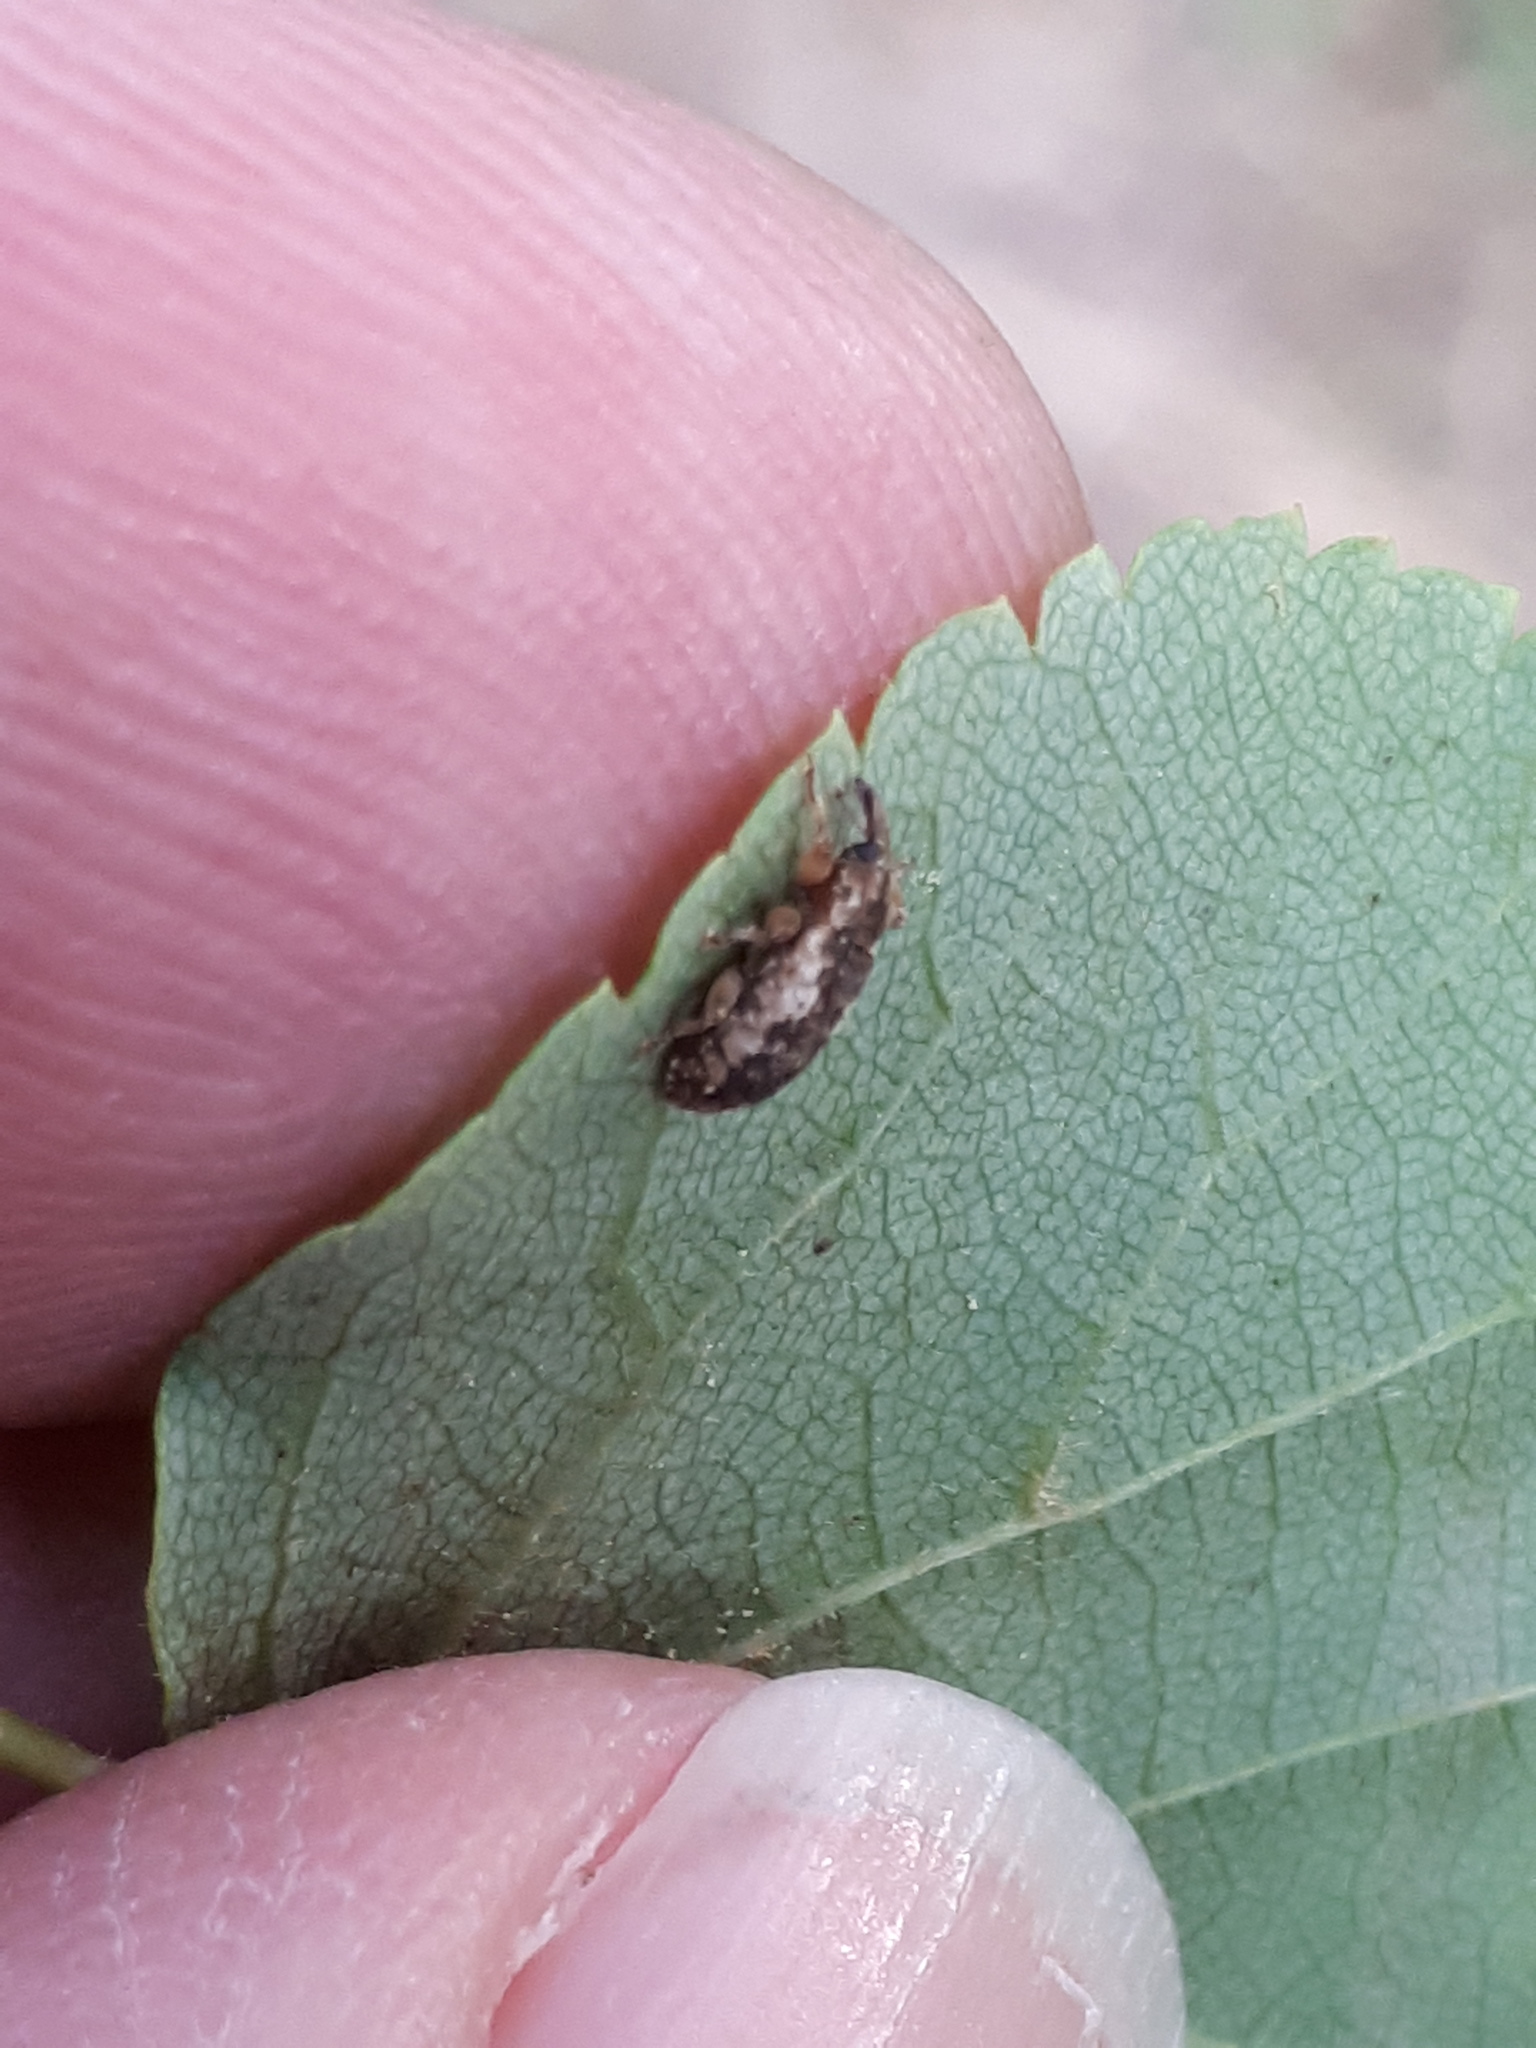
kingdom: Animalia
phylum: Arthropoda
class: Insecta
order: Coleoptera
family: Curculionidae
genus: Dorytomus
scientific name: Dorytomus ictor
